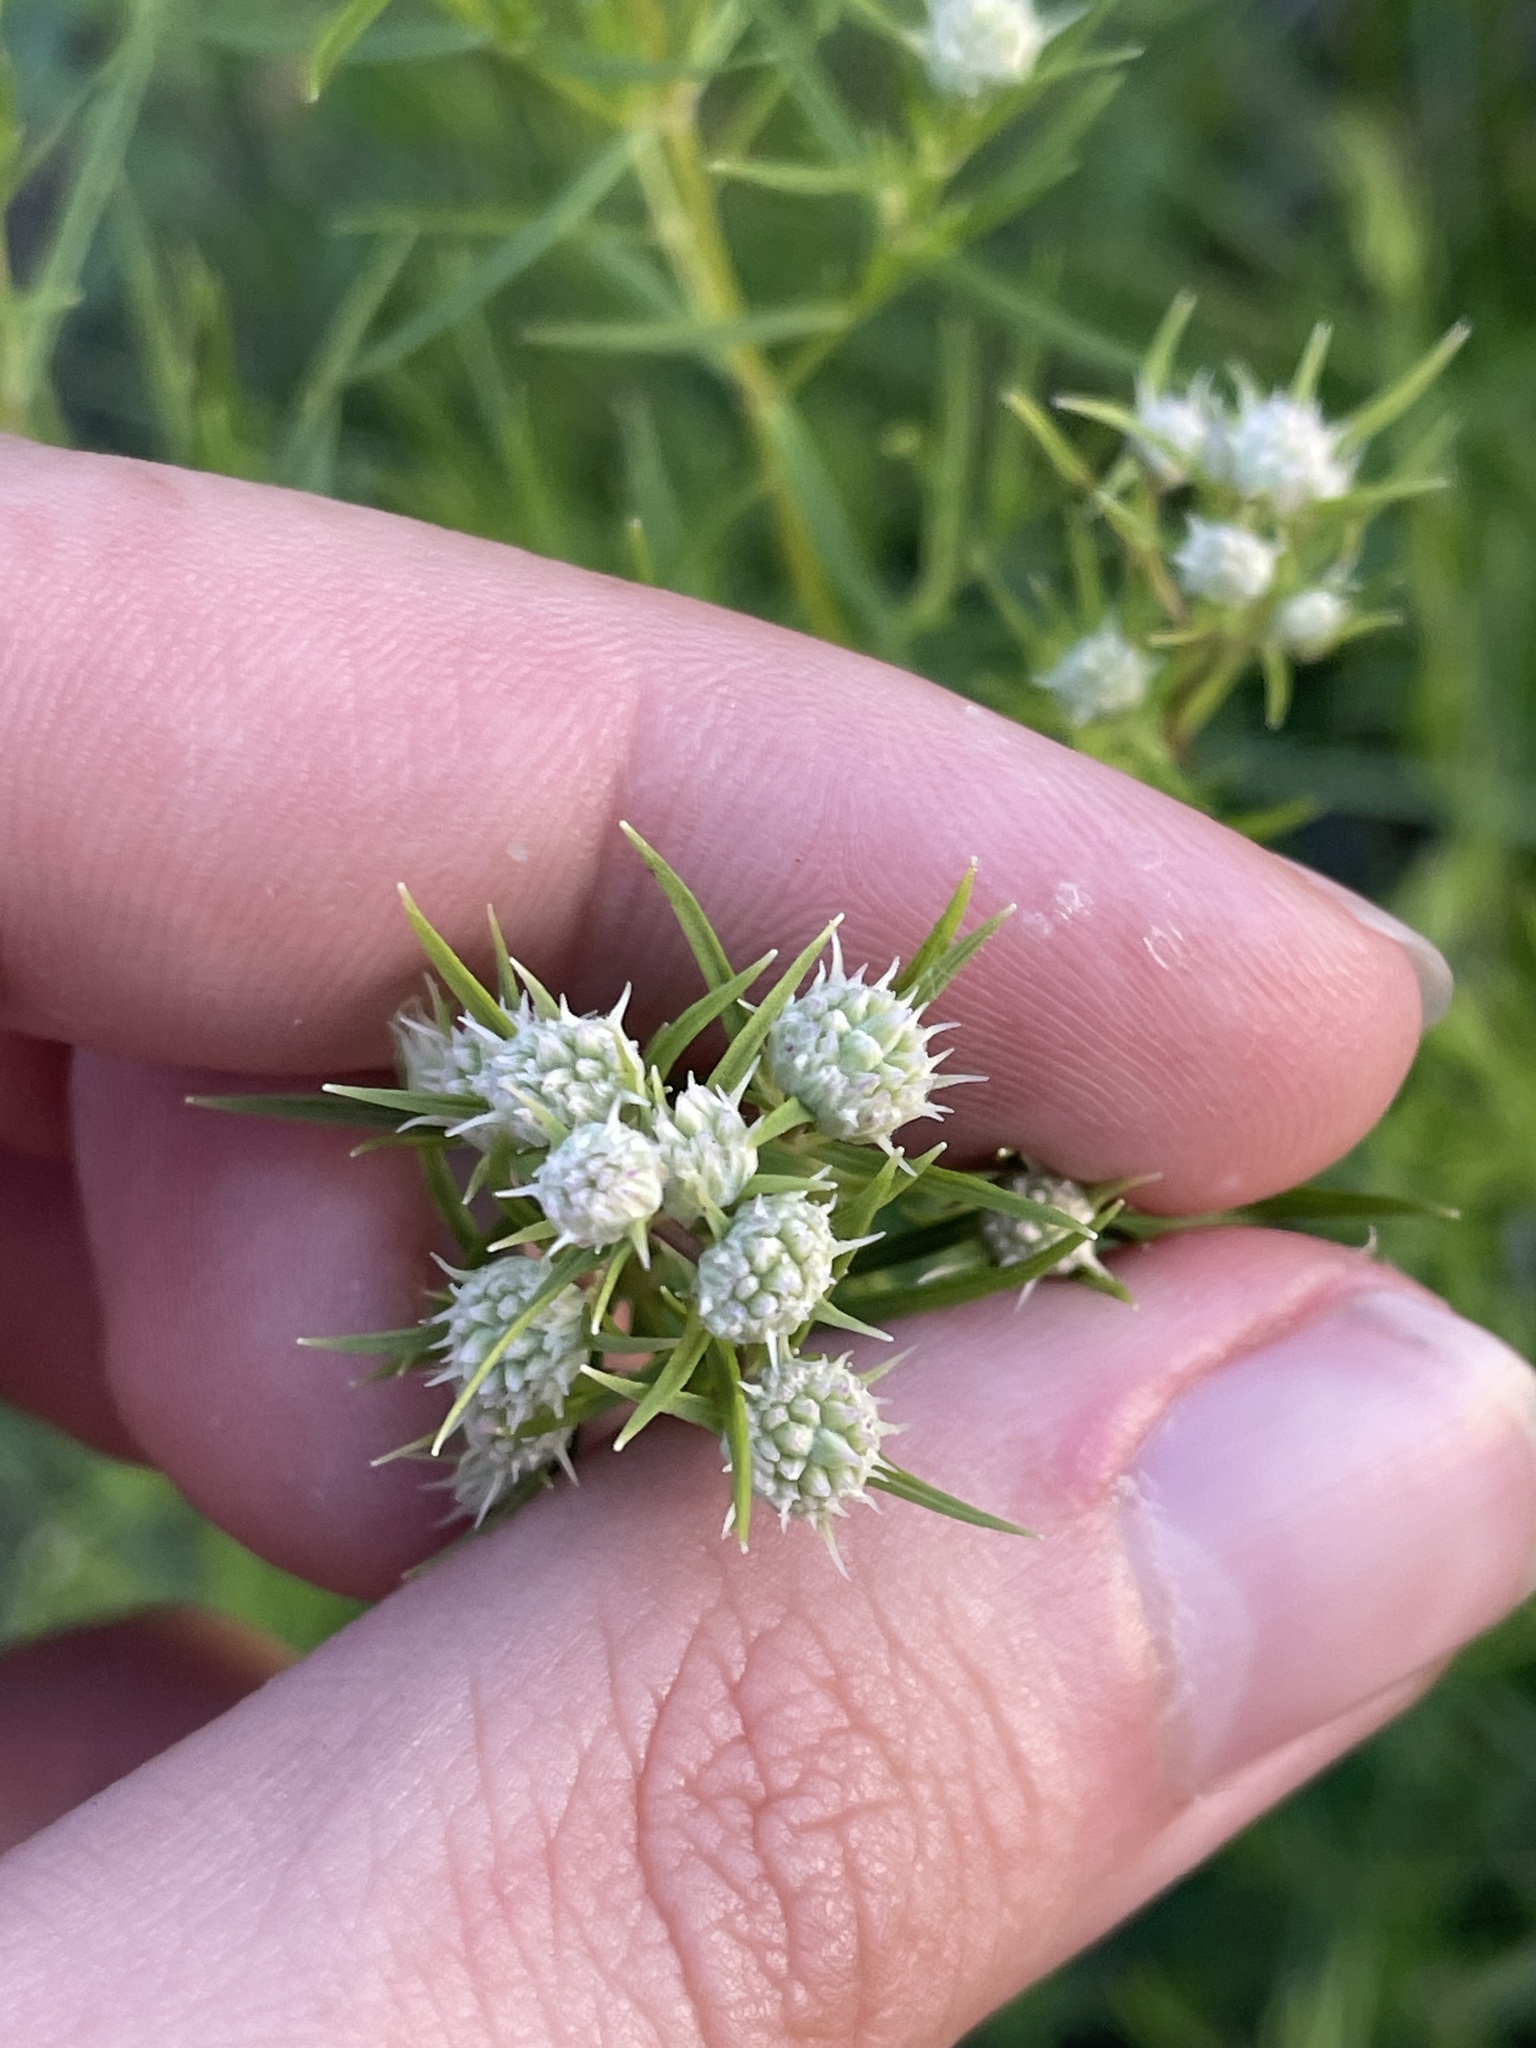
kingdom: Plantae
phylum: Tracheophyta
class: Magnoliopsida
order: Lamiales
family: Lamiaceae
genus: Pycnanthemum
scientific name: Pycnanthemum tenuifolium
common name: Narrow-leaf mountain-mint
